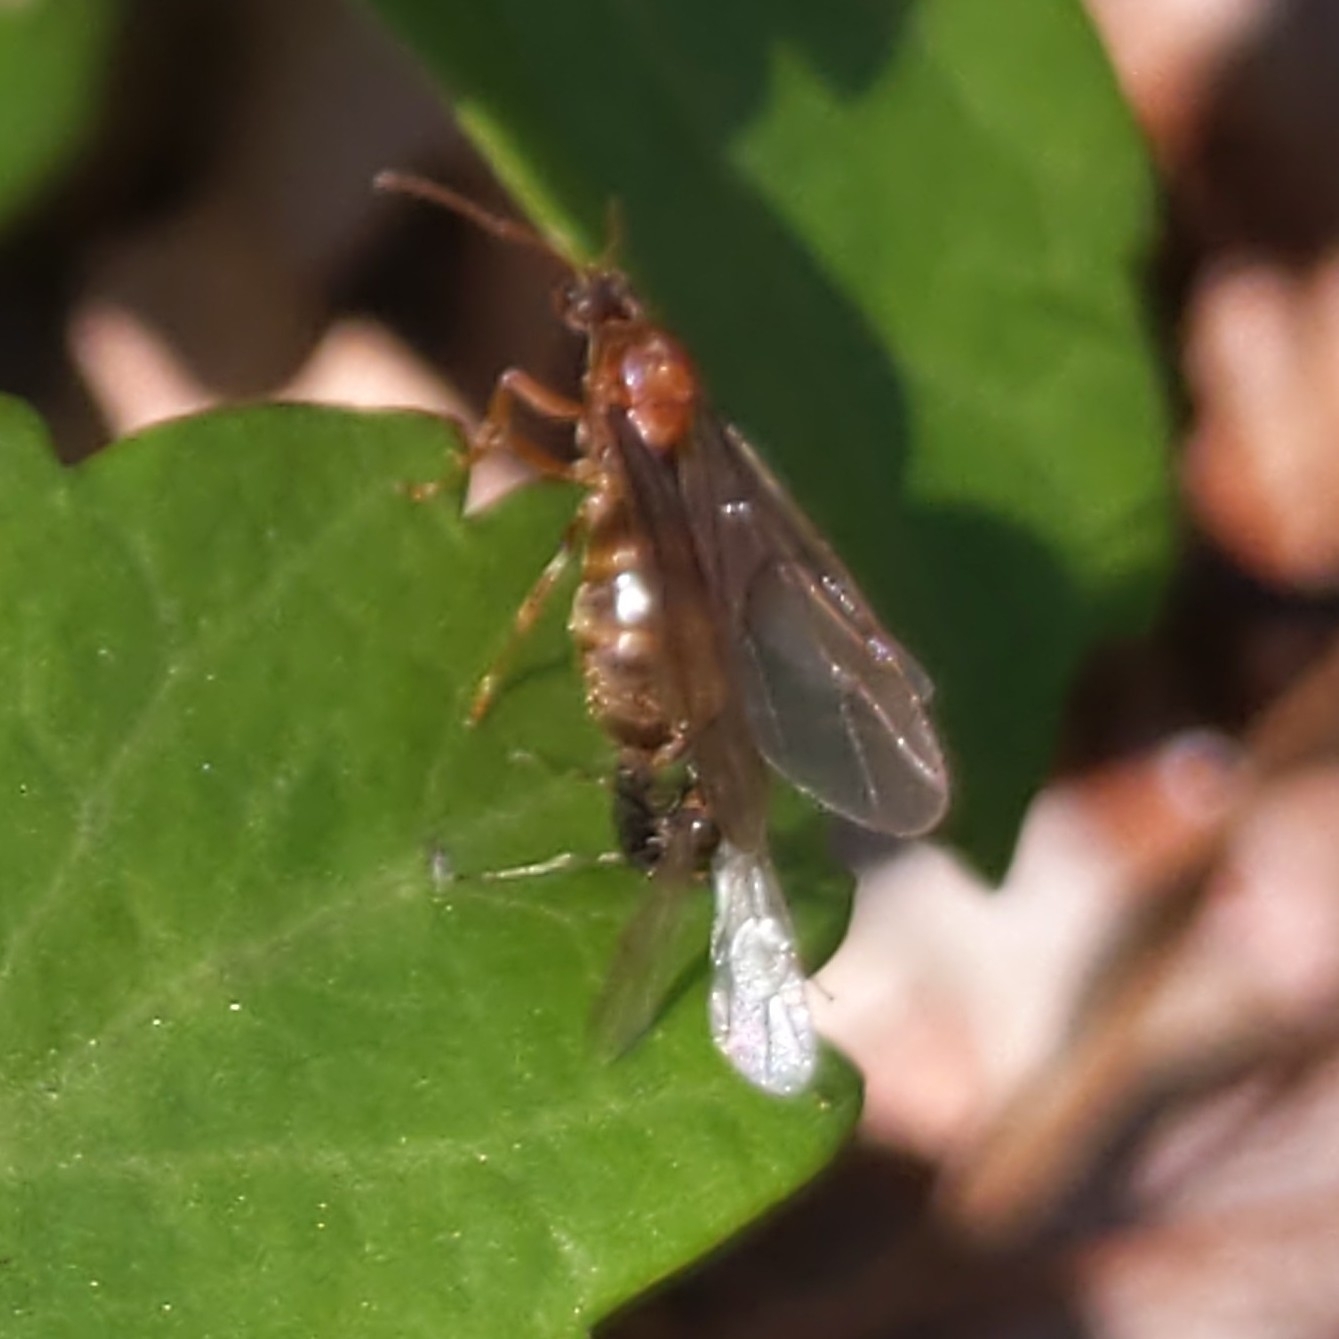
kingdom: Animalia
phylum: Arthropoda
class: Insecta
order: Hymenoptera
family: Formicidae
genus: Prenolepis
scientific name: Prenolepis imparis
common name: Small honey ant
